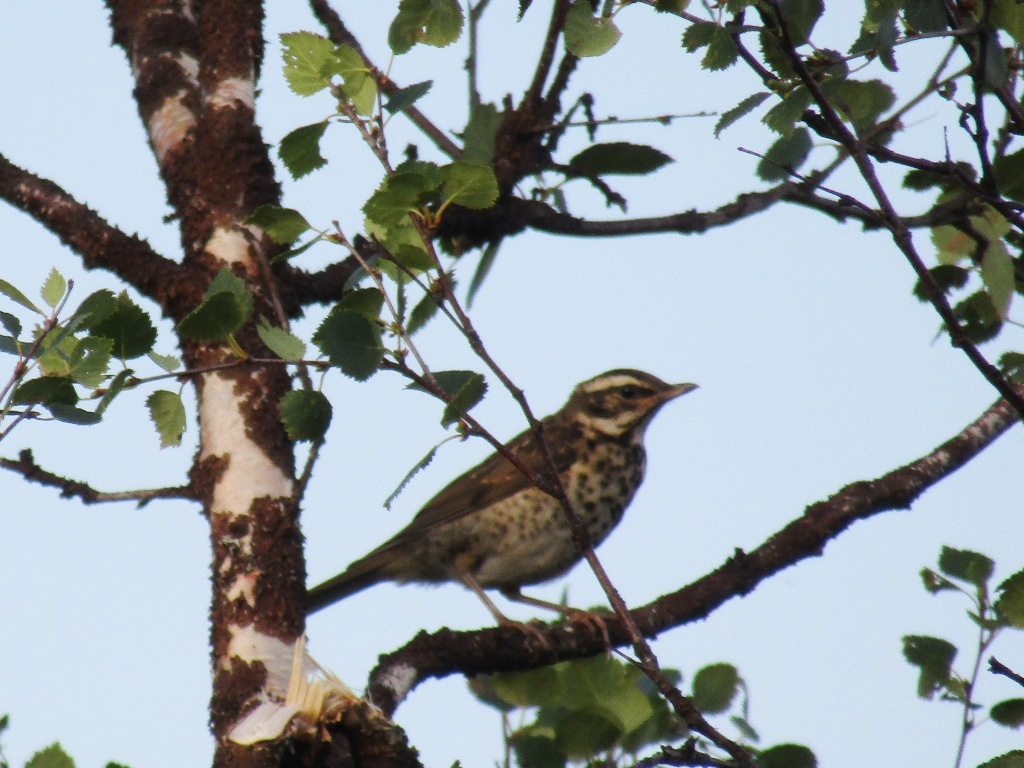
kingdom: Animalia
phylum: Chordata
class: Aves
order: Passeriformes
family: Turdidae
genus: Turdus
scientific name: Turdus iliacus
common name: Redwing
